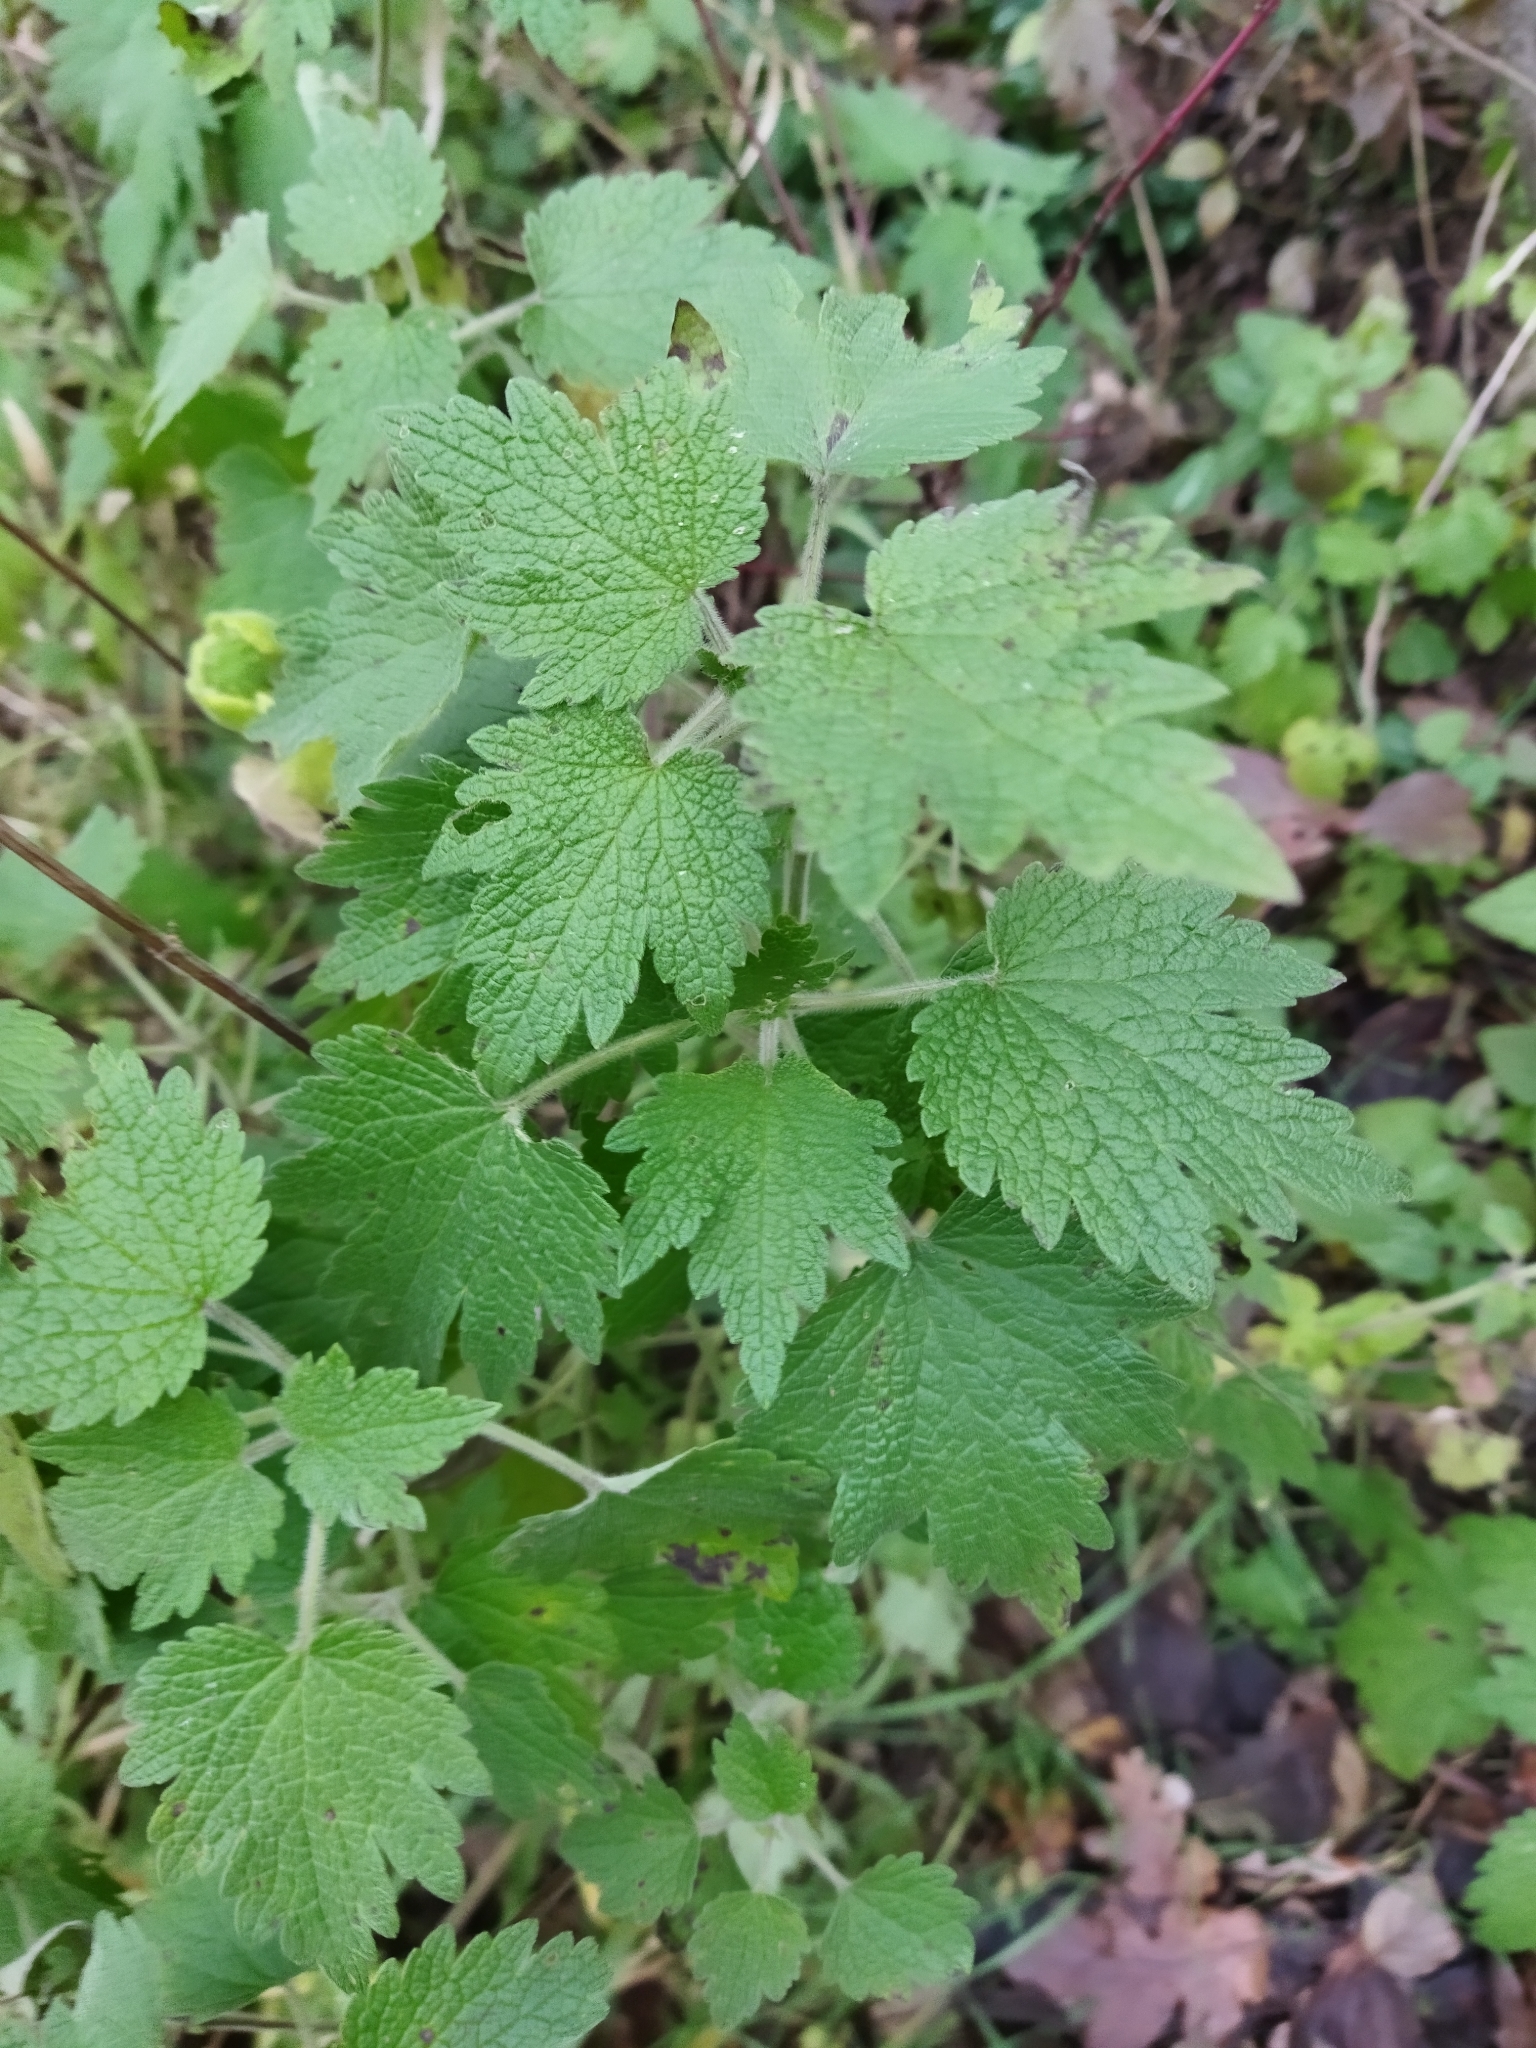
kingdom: Plantae
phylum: Tracheophyta
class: Magnoliopsida
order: Lamiales
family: Lamiaceae
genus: Leonurus
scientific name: Leonurus quinquelobatus
